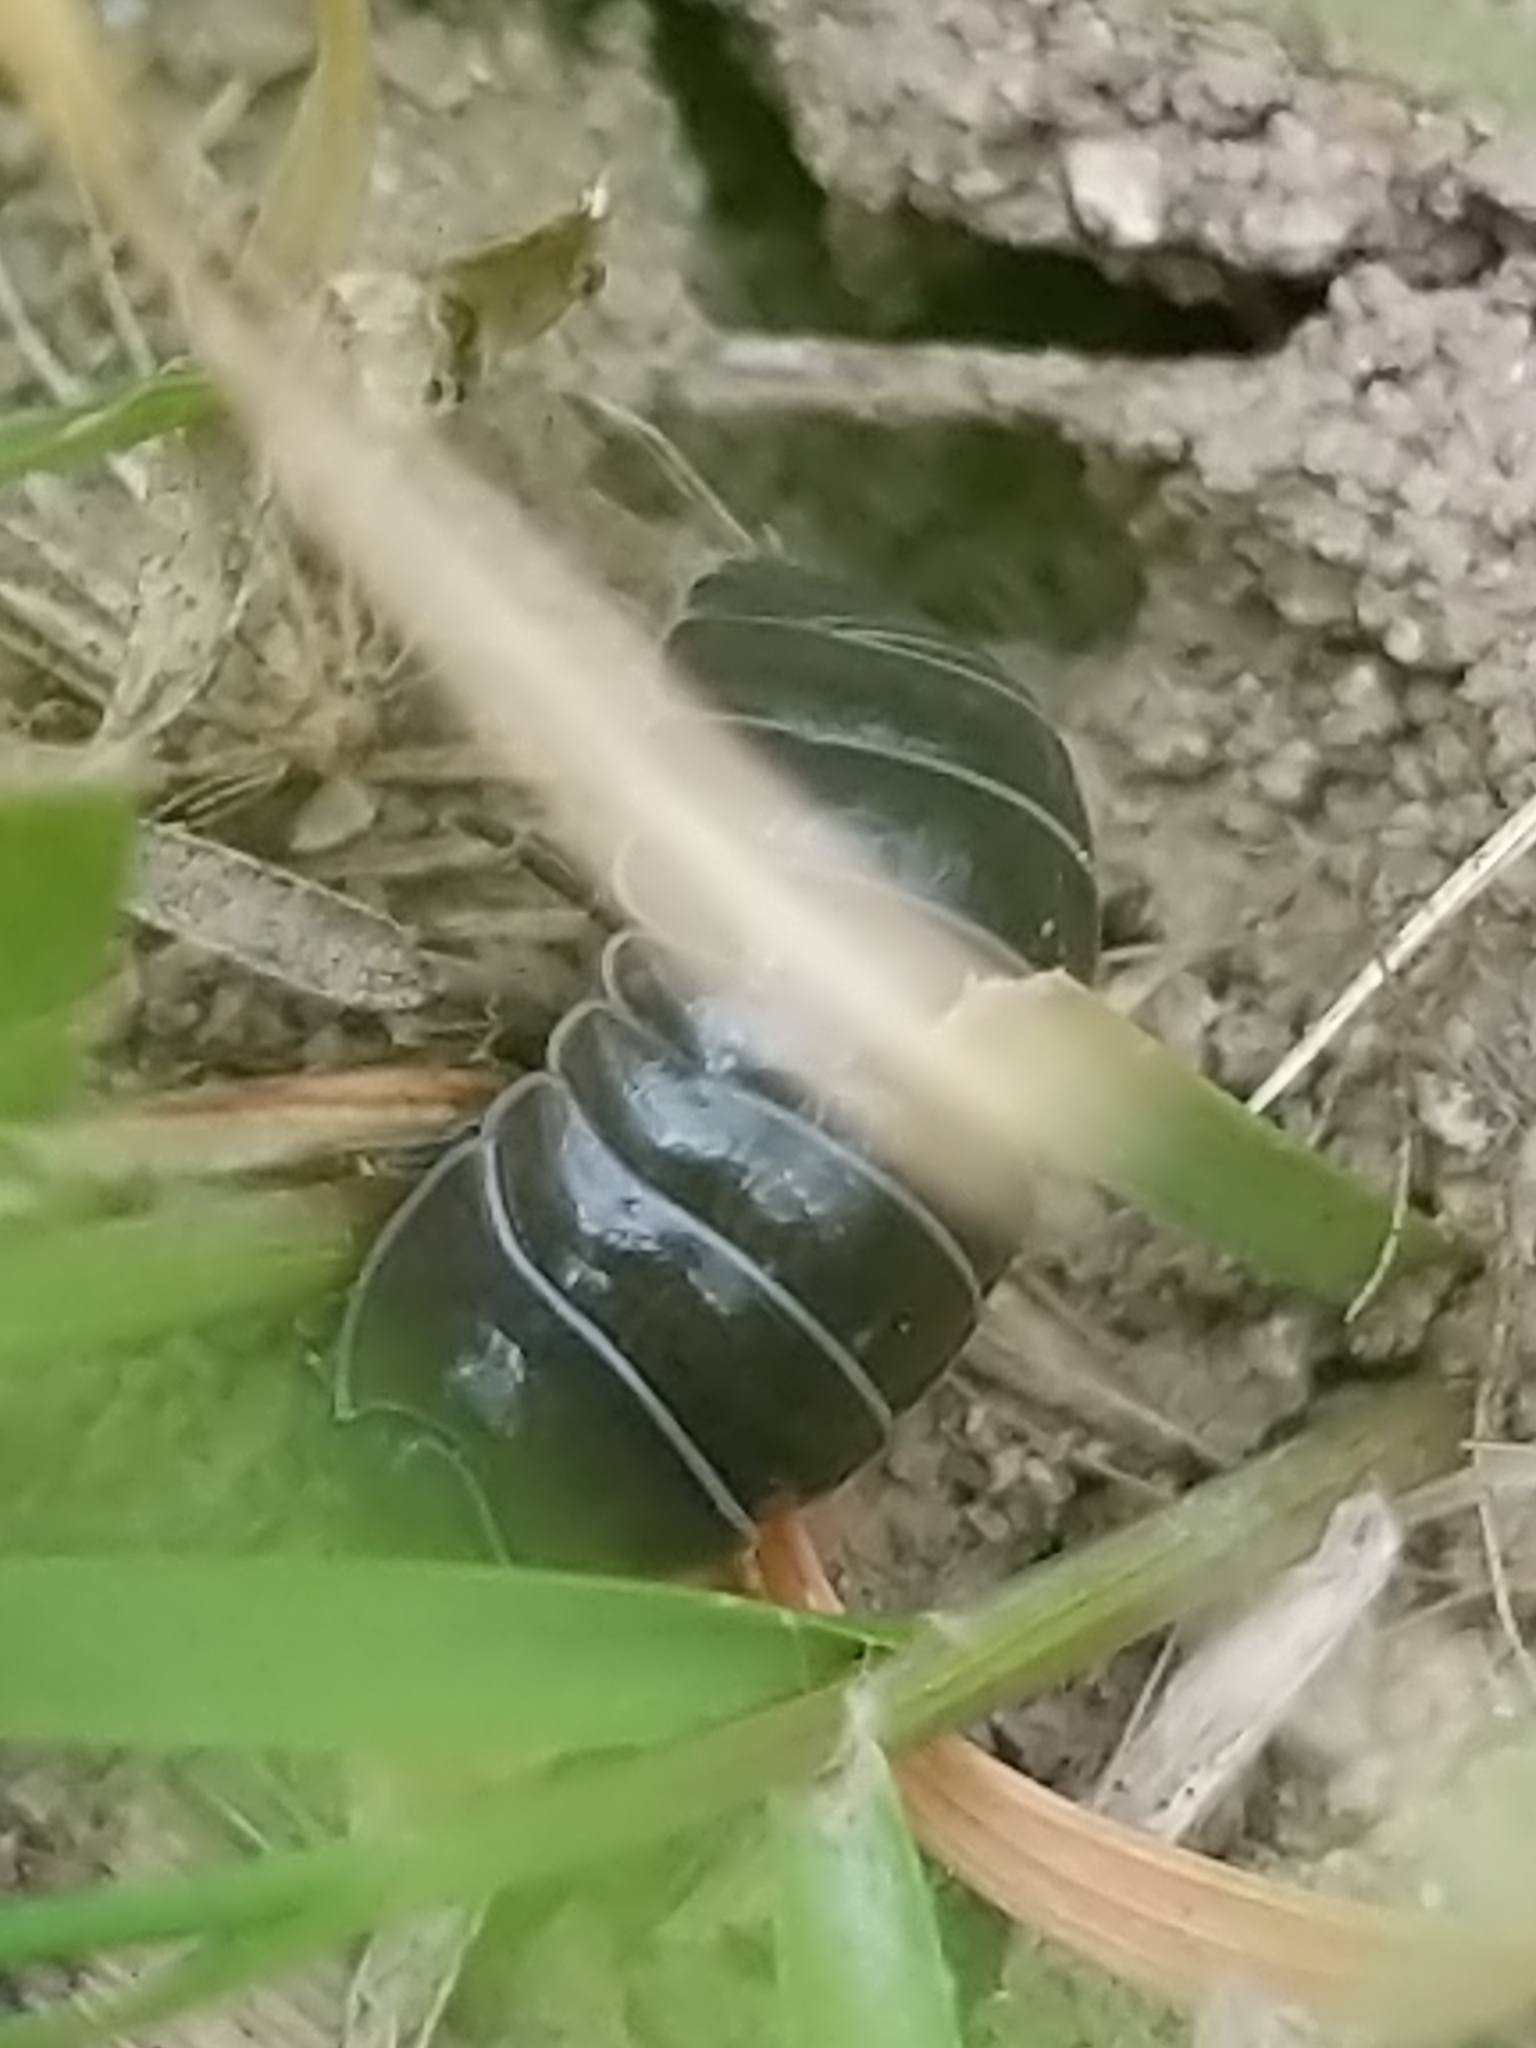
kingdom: Animalia
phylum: Arthropoda
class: Malacostraca
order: Isopoda
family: Armadillidiidae
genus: Armadillidium
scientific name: Armadillidium vulgare
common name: Common pill woodlouse
